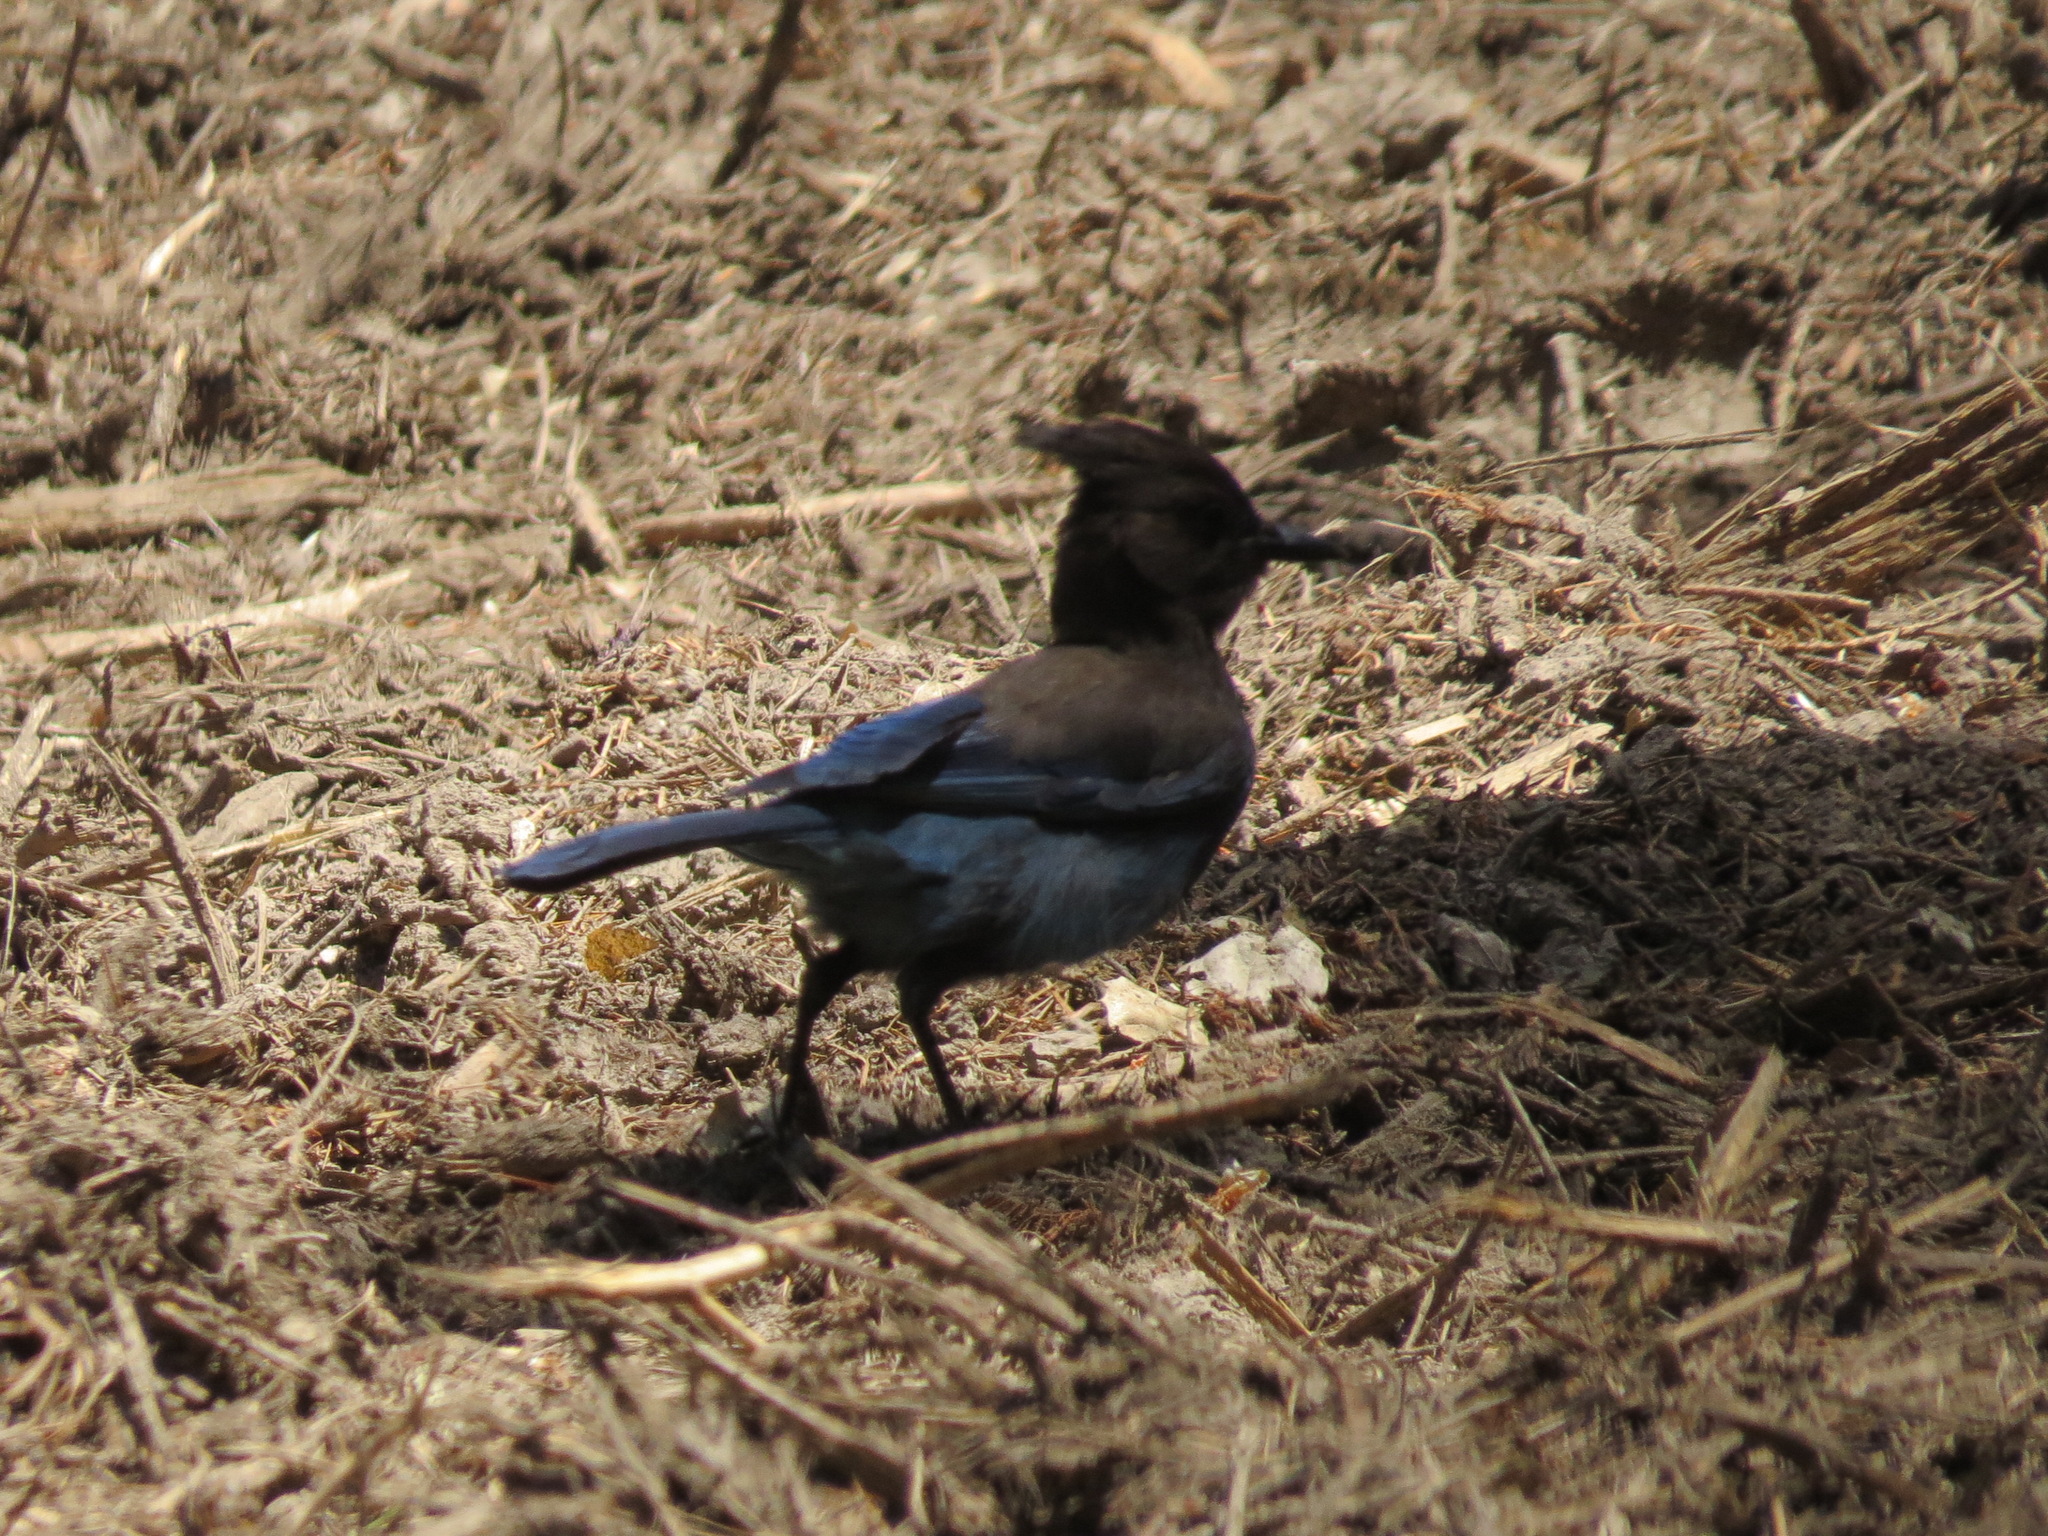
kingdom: Animalia
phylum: Chordata
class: Aves
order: Passeriformes
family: Corvidae
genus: Cyanocitta
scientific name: Cyanocitta stelleri
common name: Steller's jay
